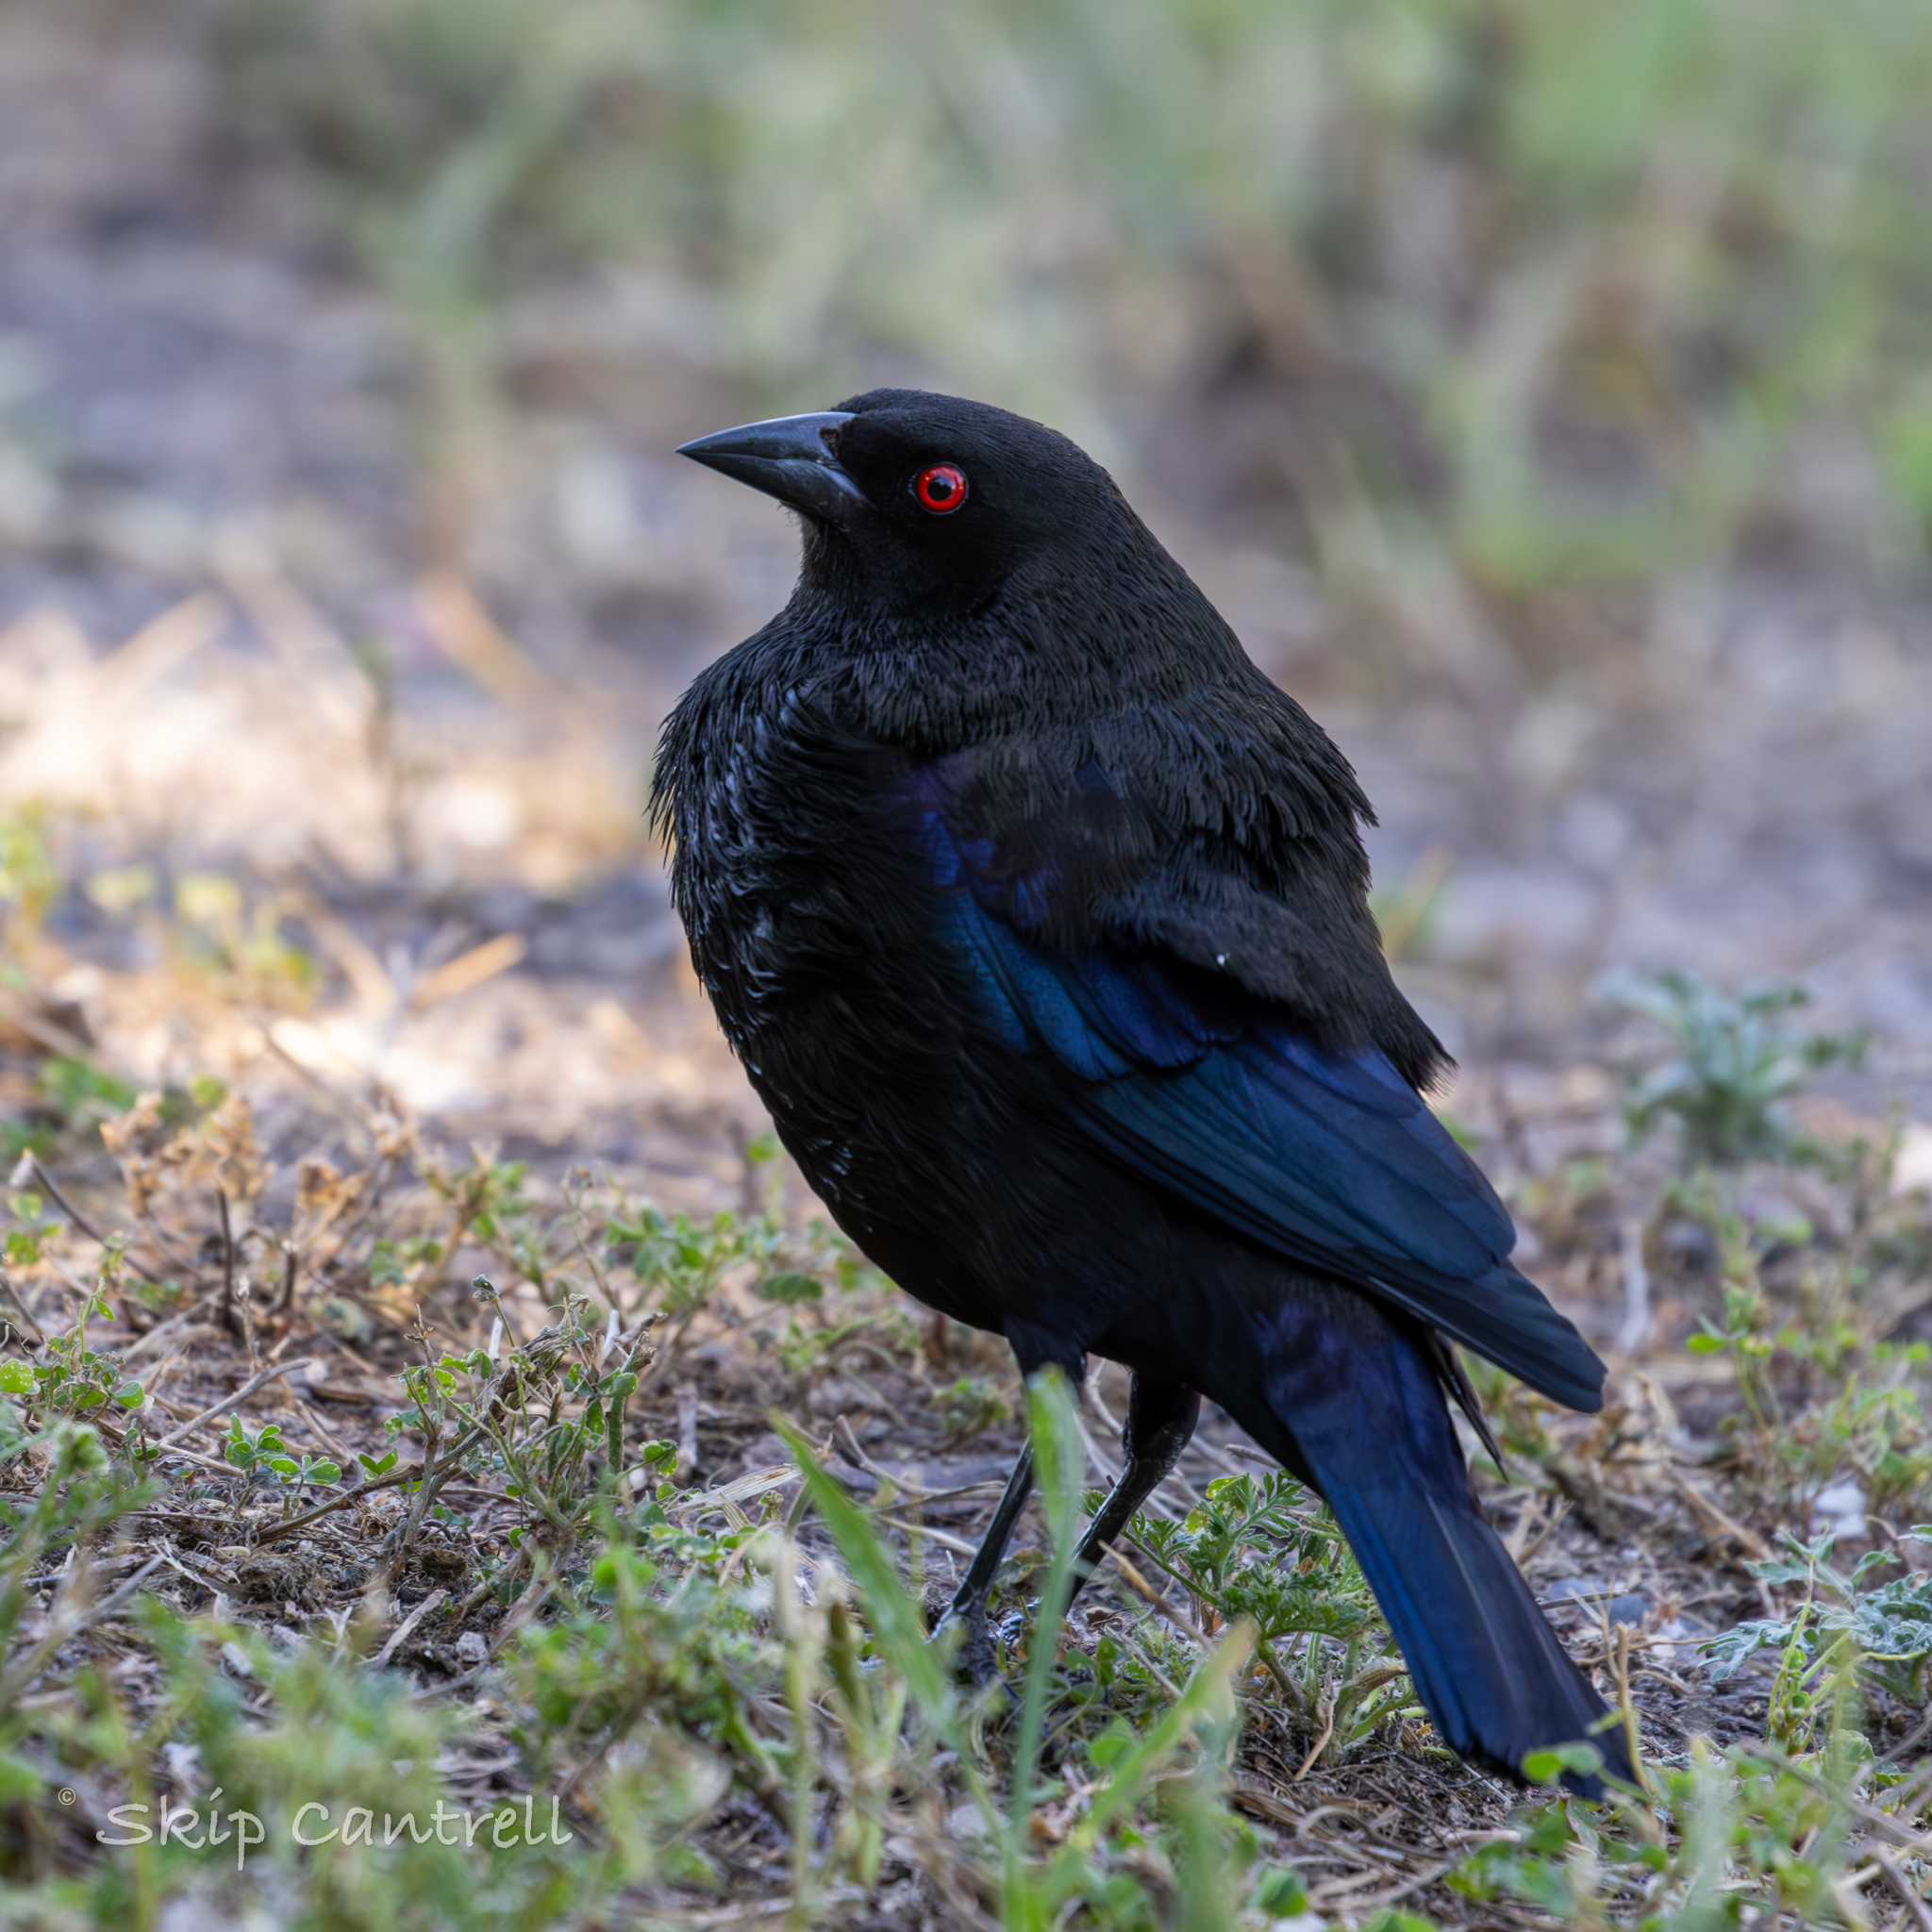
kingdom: Animalia
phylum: Chordata
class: Aves
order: Passeriformes
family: Icteridae
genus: Molothrus
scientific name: Molothrus aeneus
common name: Bronzed cowbird
